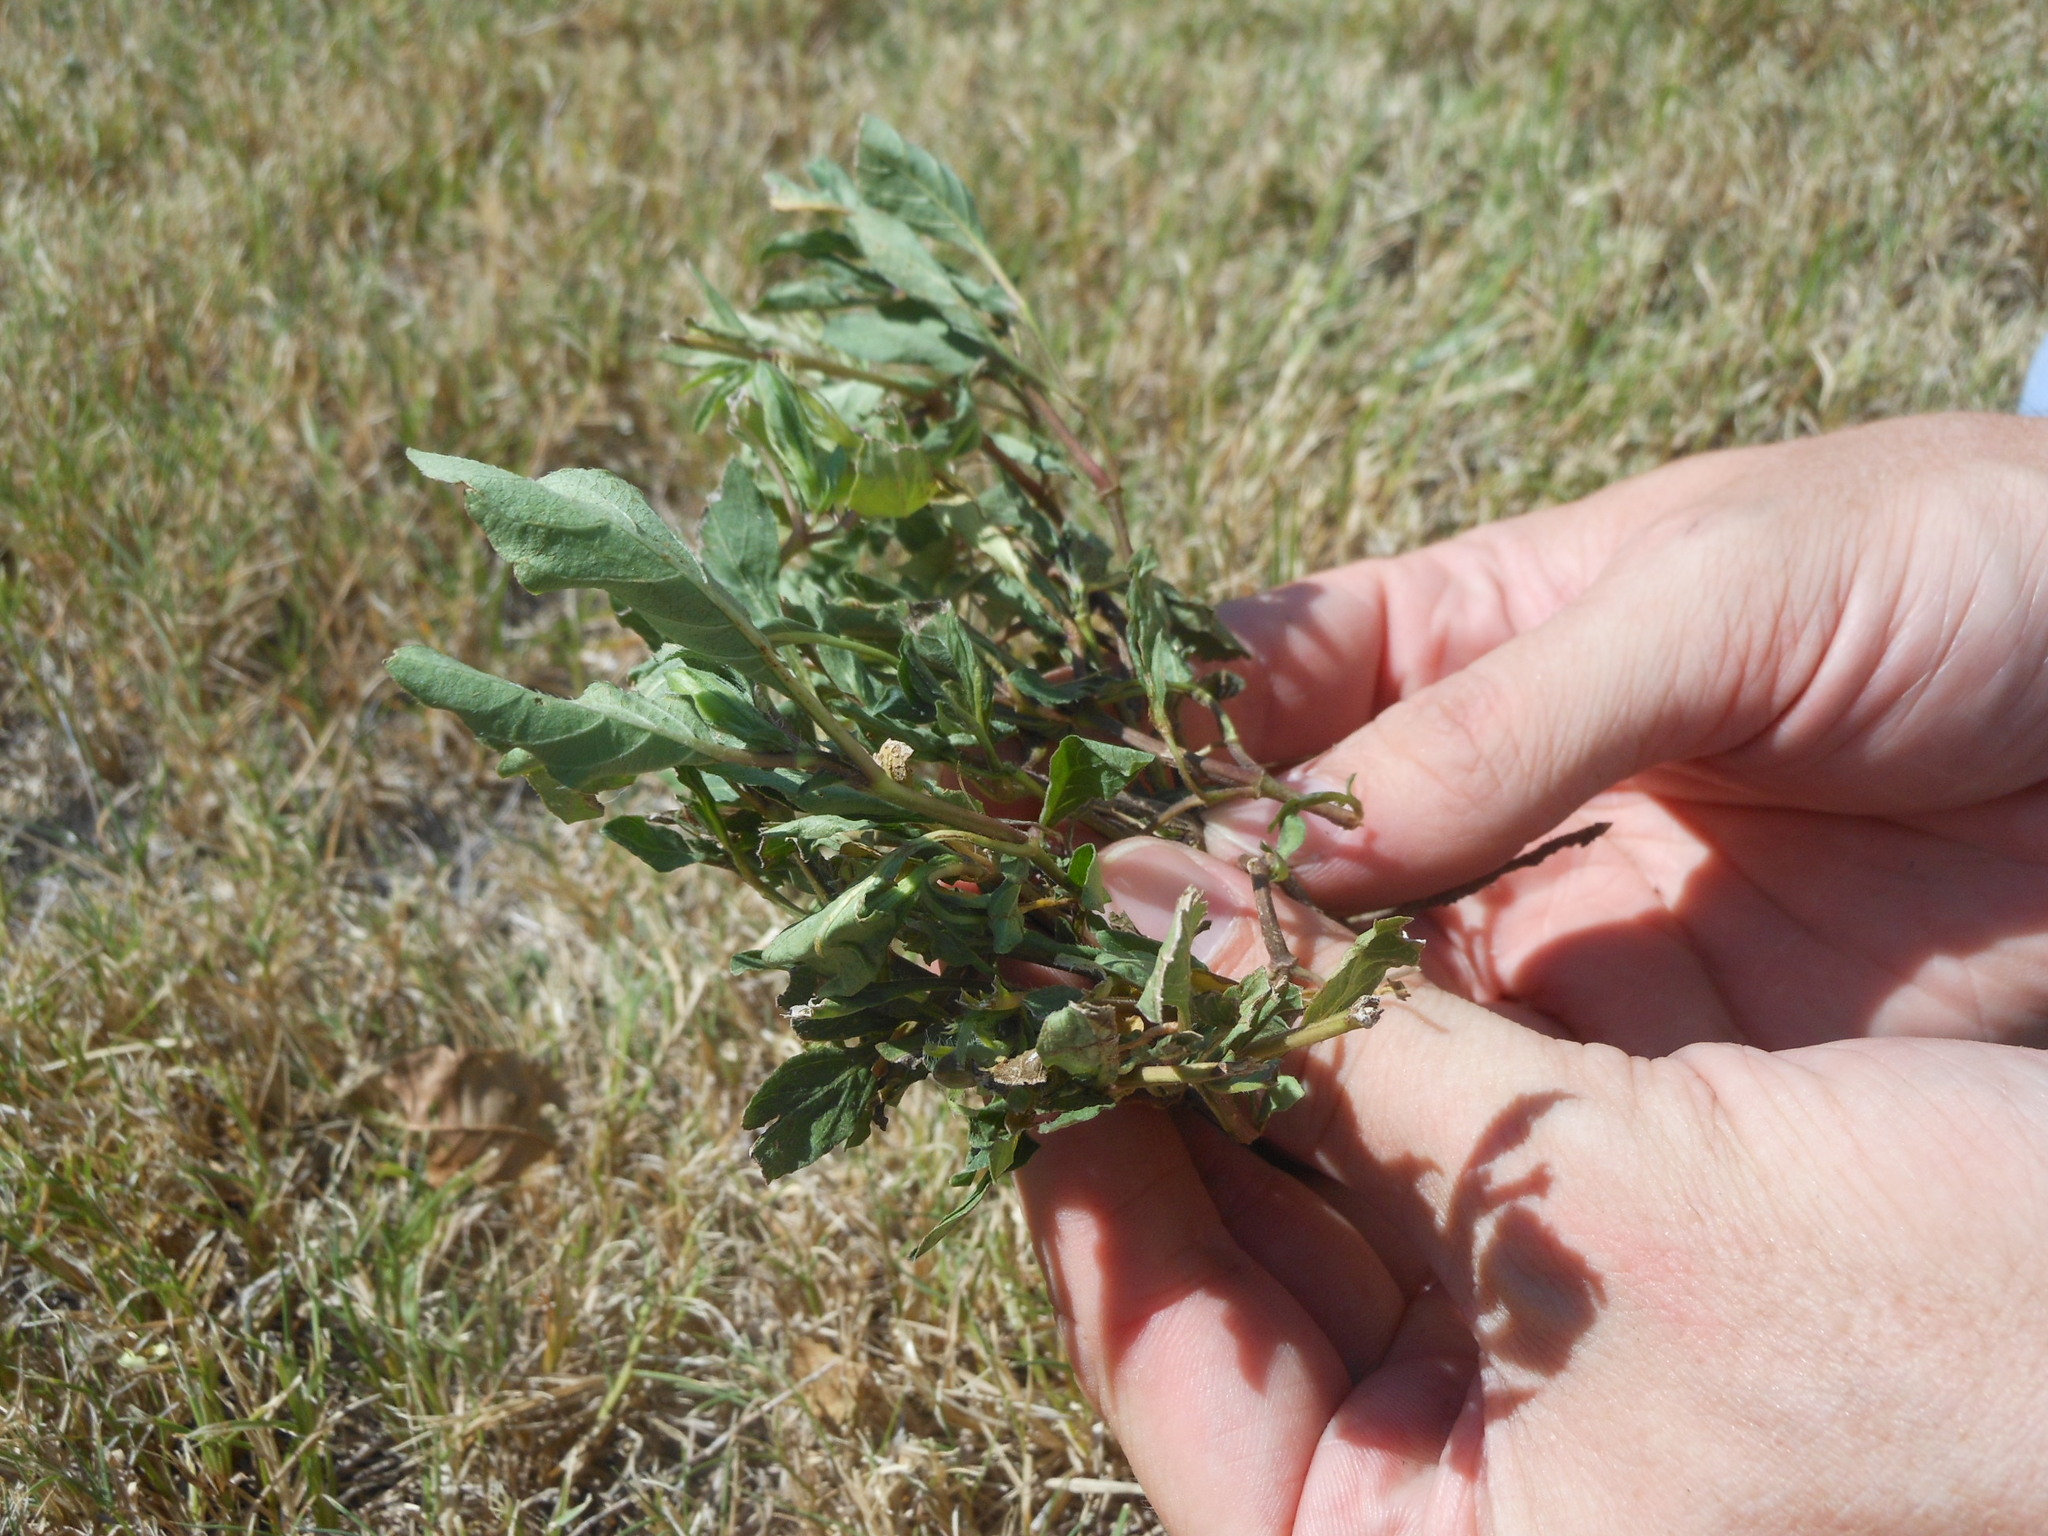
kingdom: Plantae
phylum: Tracheophyta
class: Magnoliopsida
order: Lamiales
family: Acanthaceae
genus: Ruellia
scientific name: Ruellia humilis
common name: Fringe-leaf ruellia
